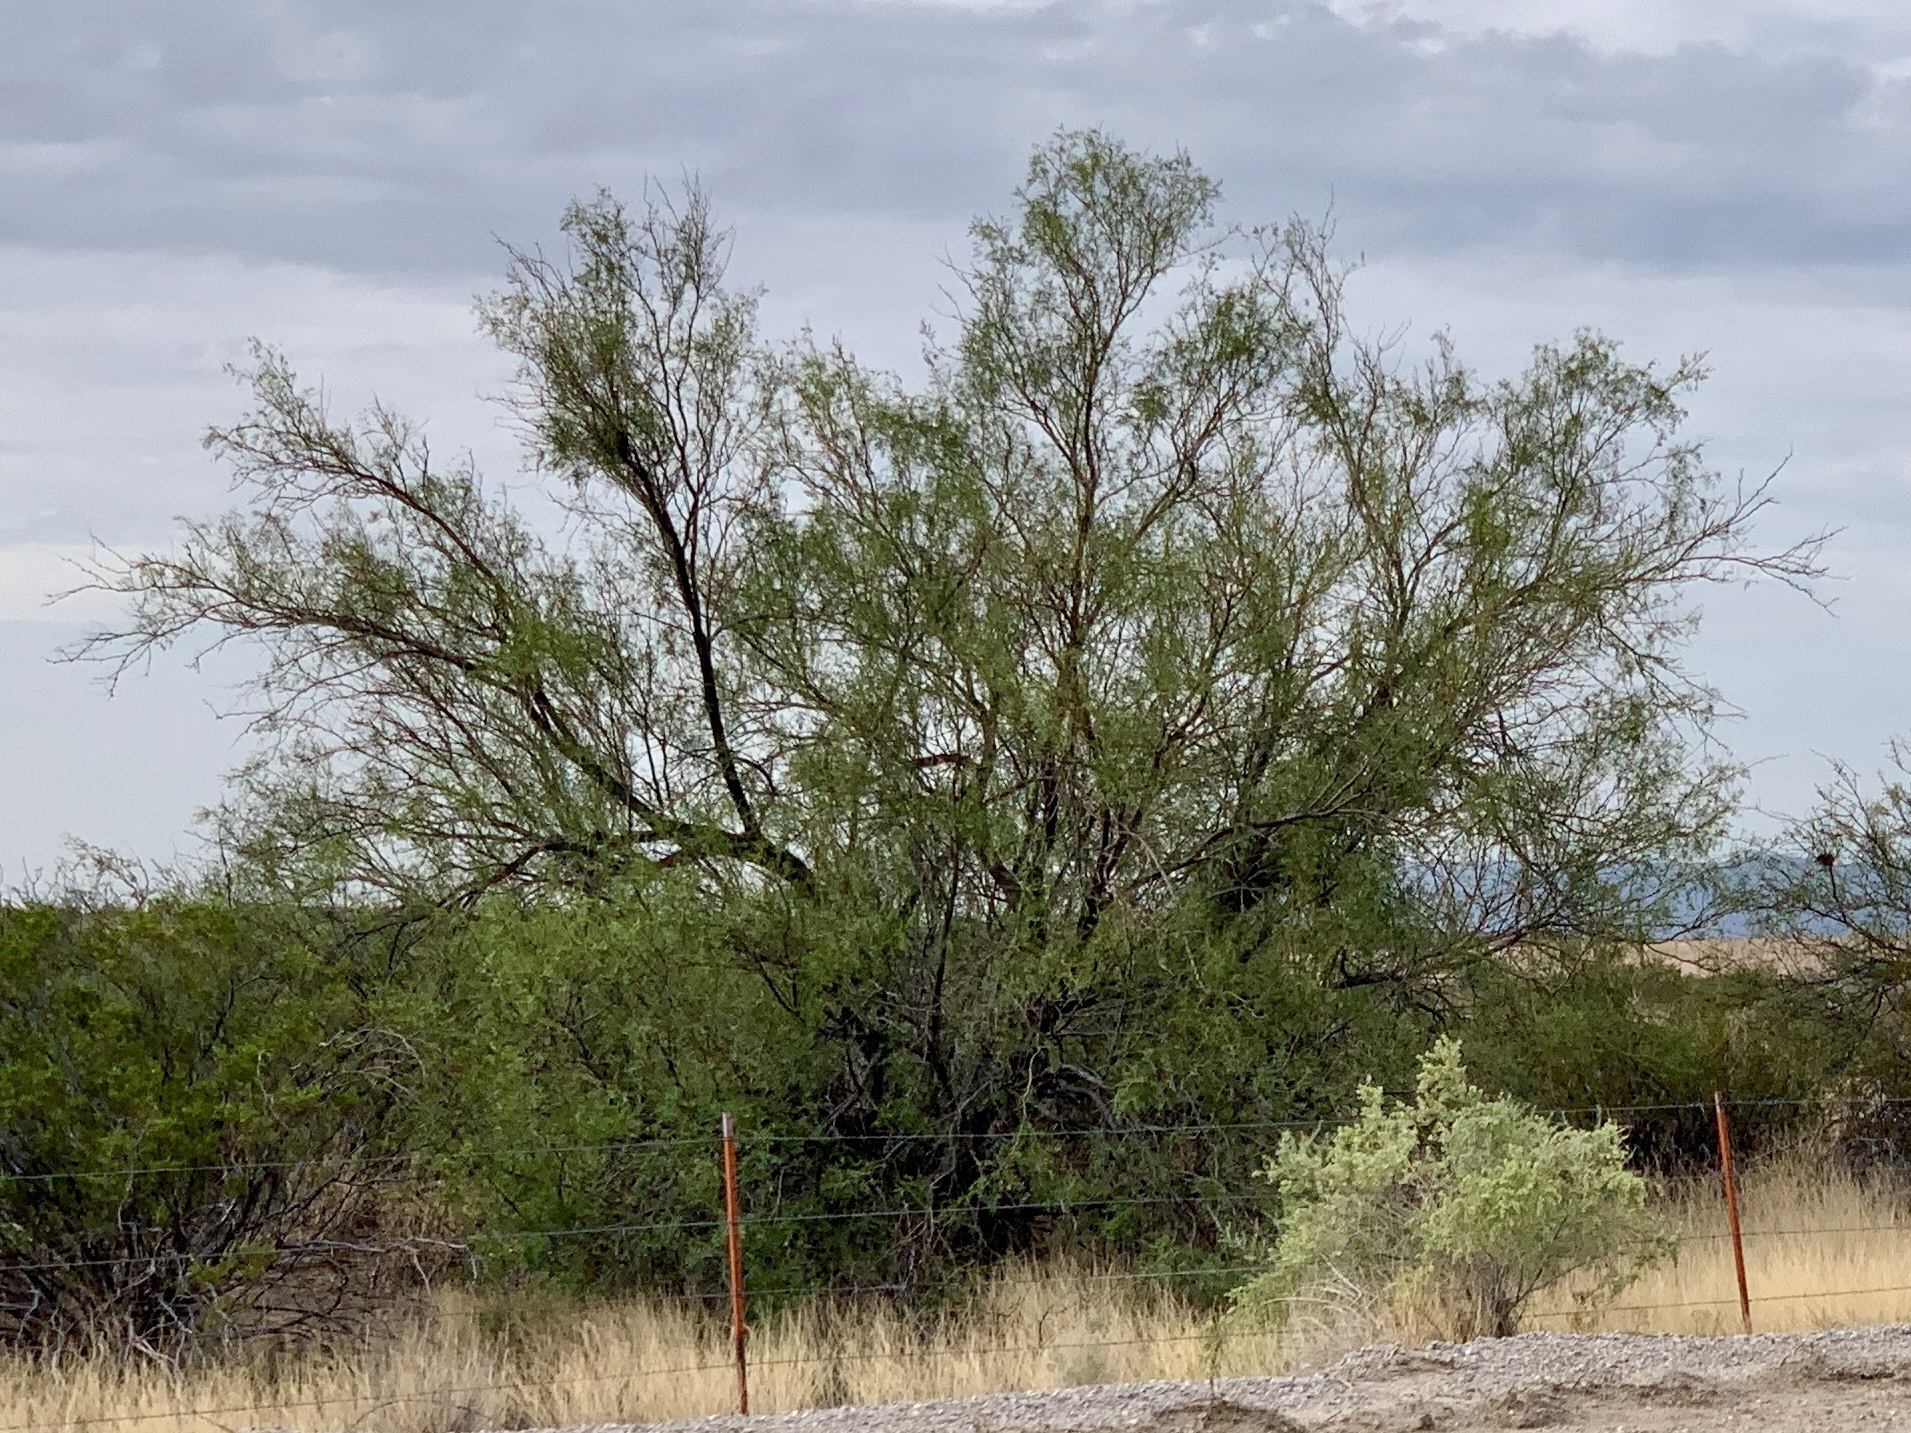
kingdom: Plantae
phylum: Tracheophyta
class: Magnoliopsida
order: Lamiales
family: Bignoniaceae
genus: Chilopsis
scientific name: Chilopsis linearis
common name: Desert-willow
